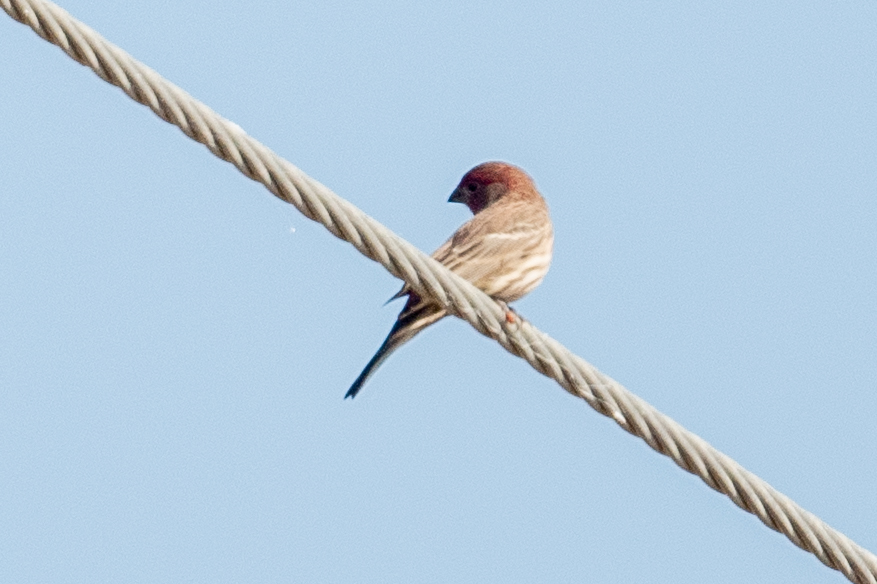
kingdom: Animalia
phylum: Chordata
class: Aves
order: Passeriformes
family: Fringillidae
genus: Haemorhous
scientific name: Haemorhous mexicanus
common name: House finch
